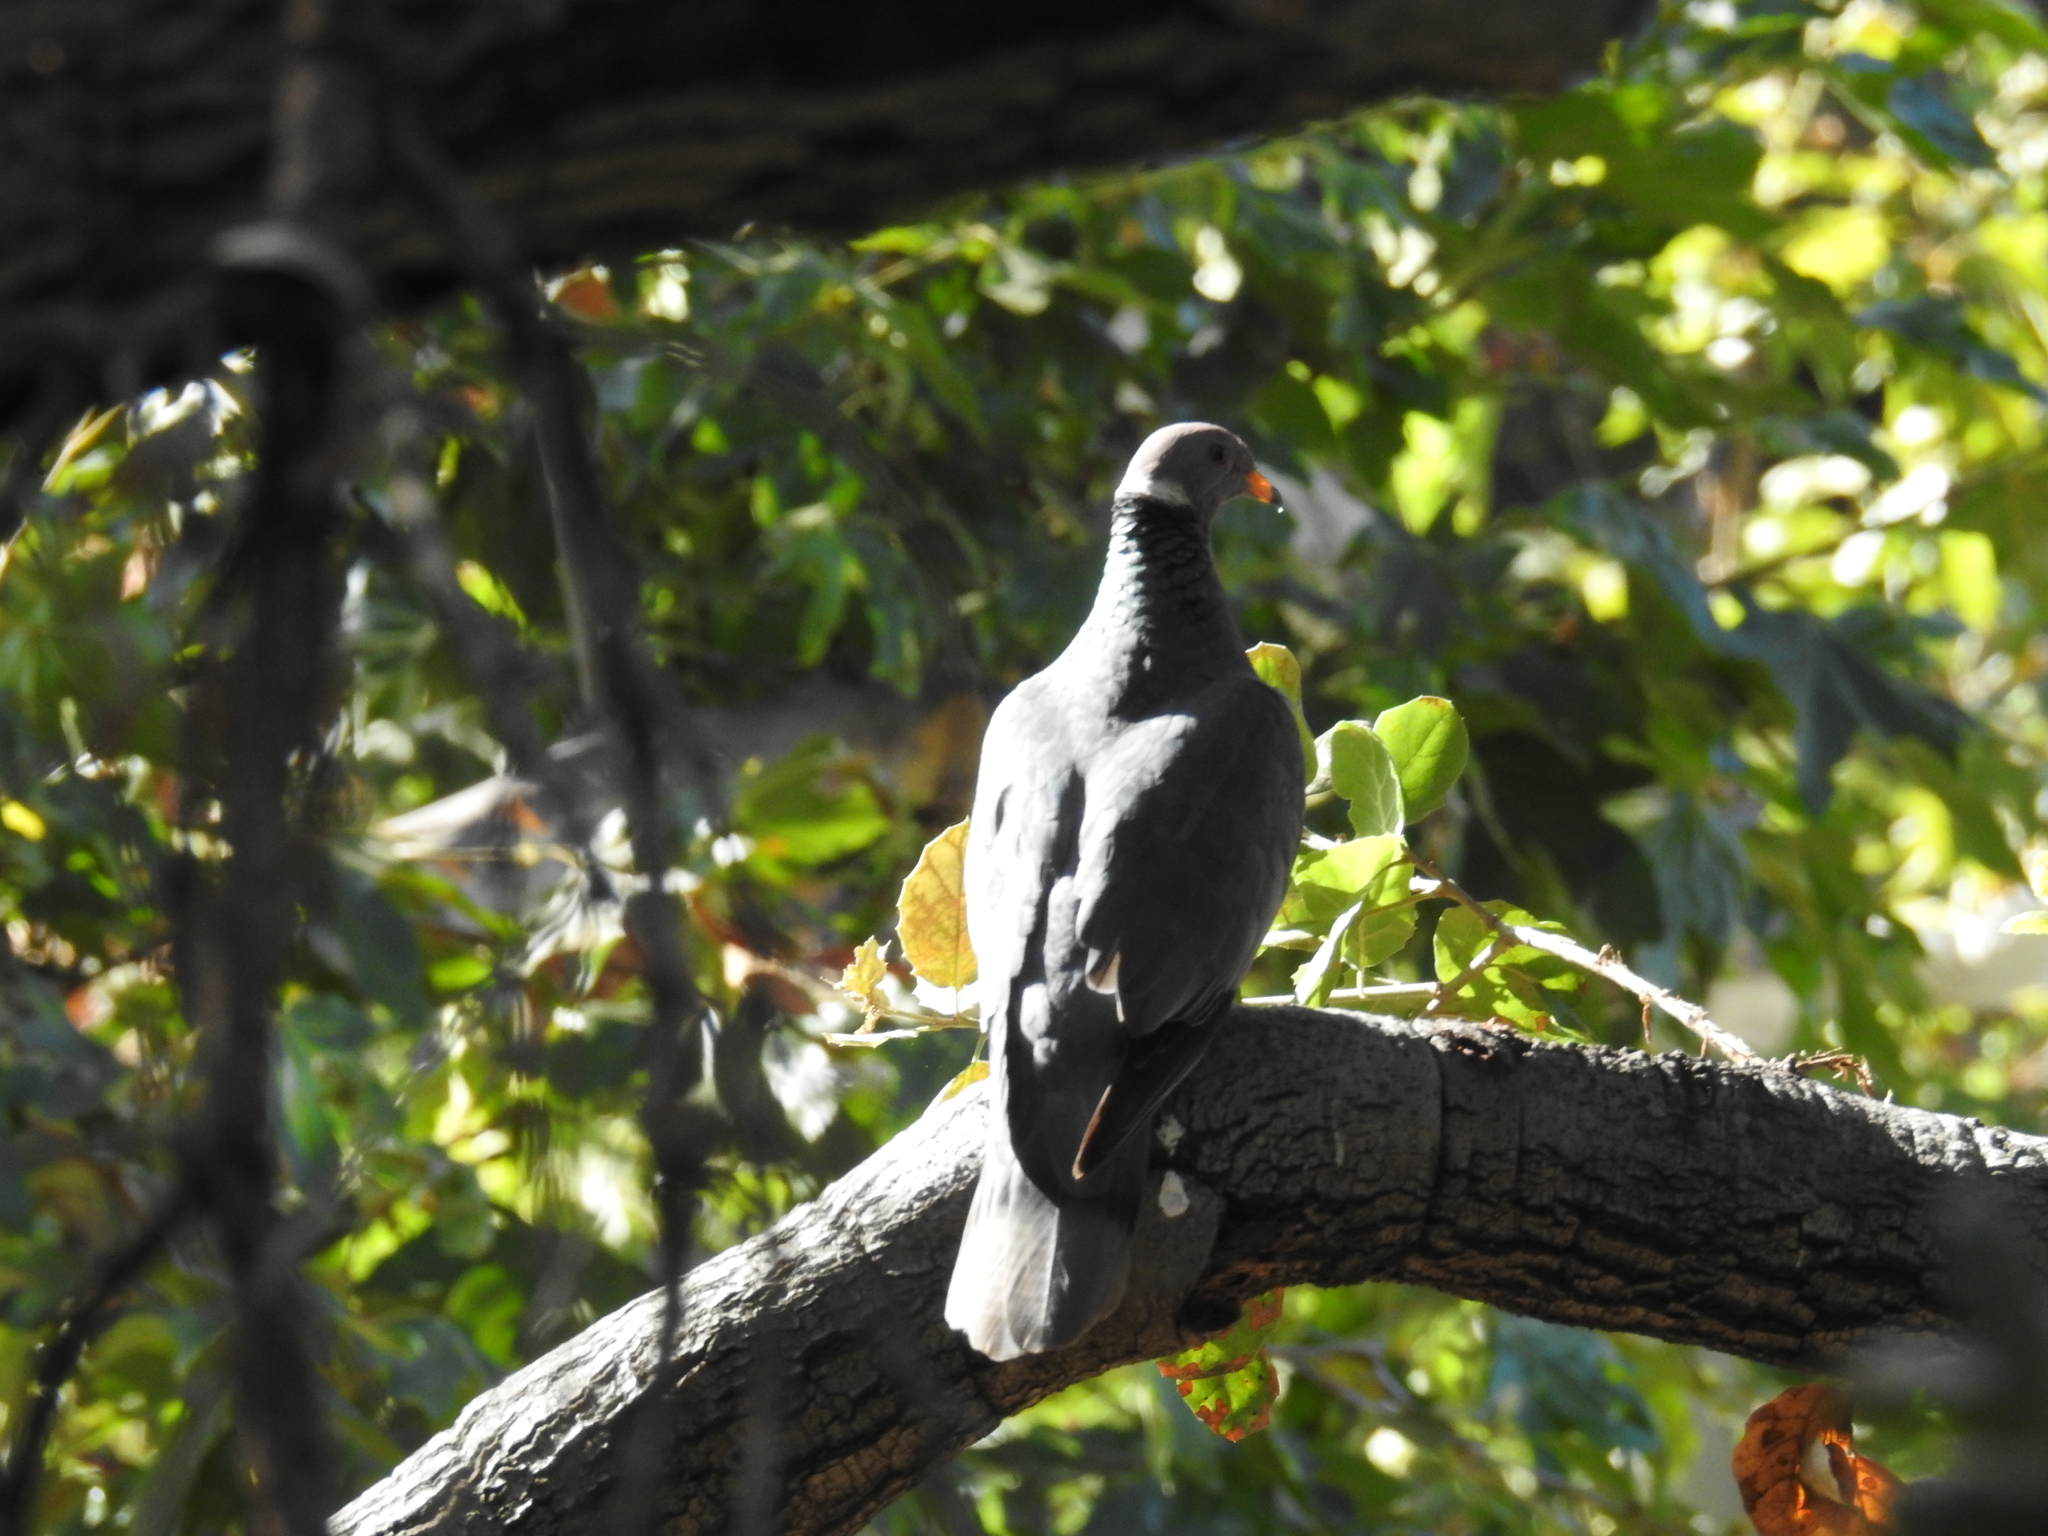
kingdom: Animalia
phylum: Chordata
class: Aves
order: Columbiformes
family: Columbidae
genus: Patagioenas
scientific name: Patagioenas fasciata
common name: Band-tailed pigeon
